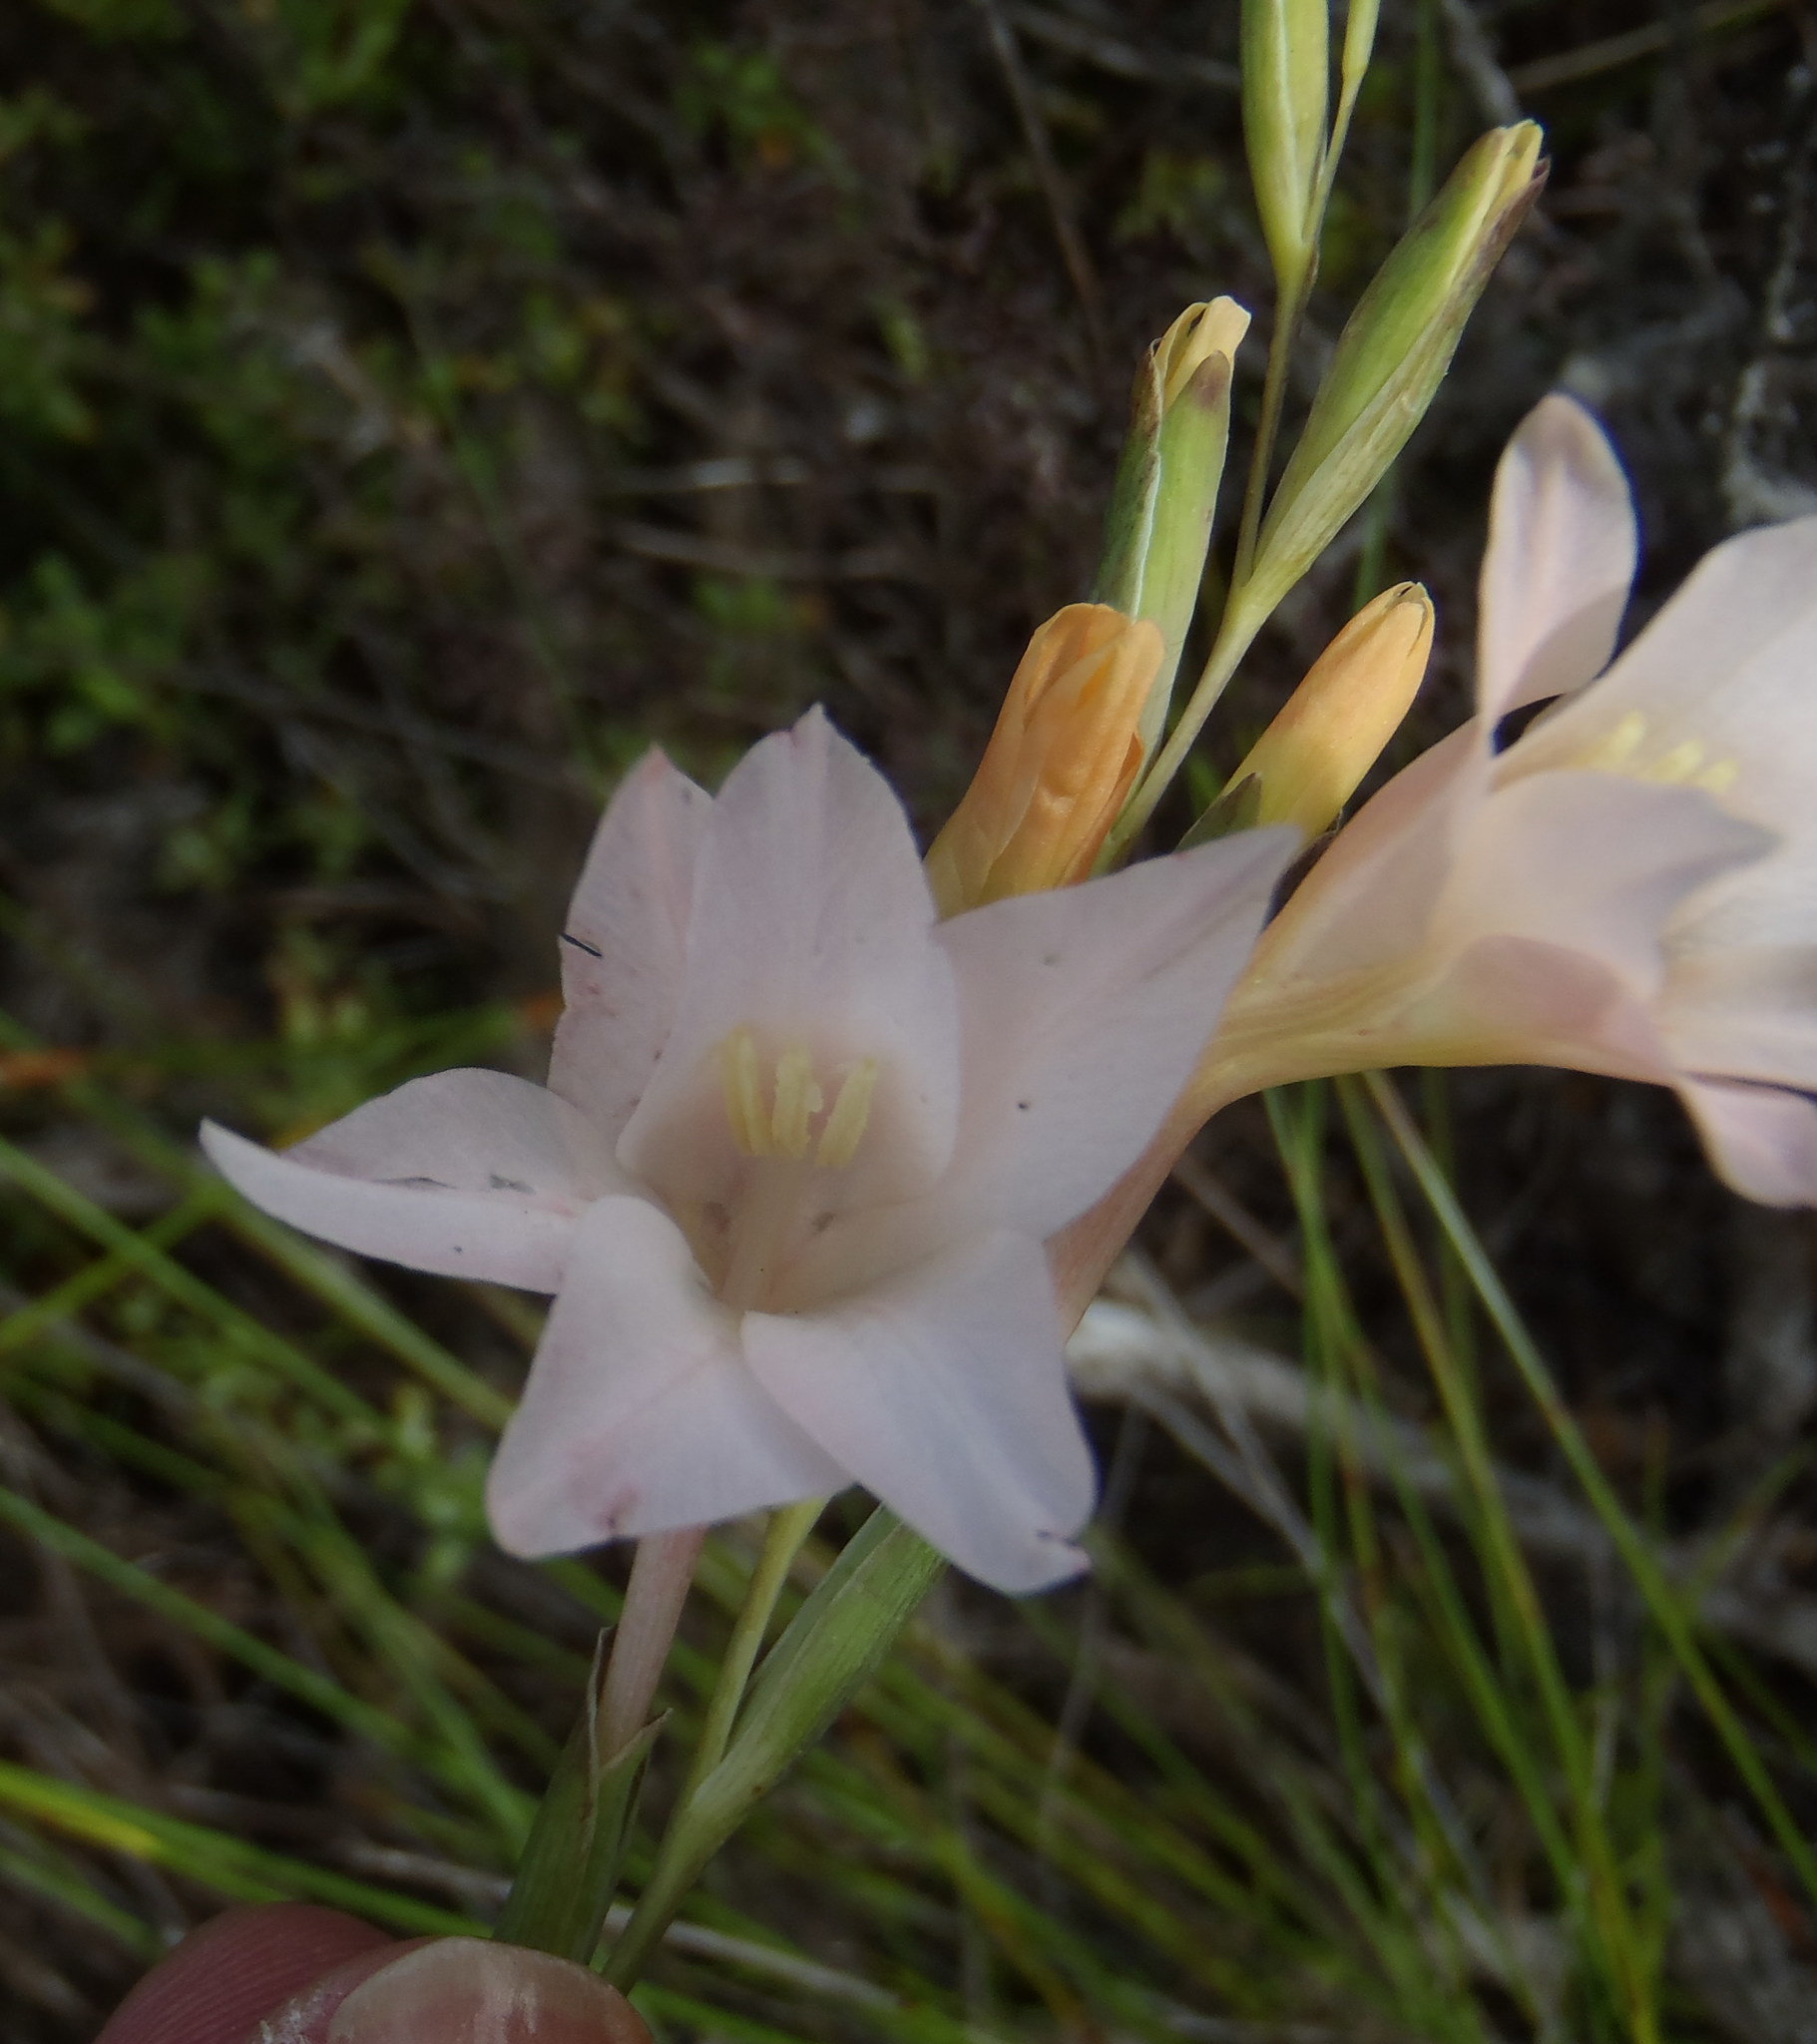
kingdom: Plantae
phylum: Tracheophyta
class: Liliopsida
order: Asparagales
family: Iridaceae
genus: Gladiolus
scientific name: Gladiolus monticola
